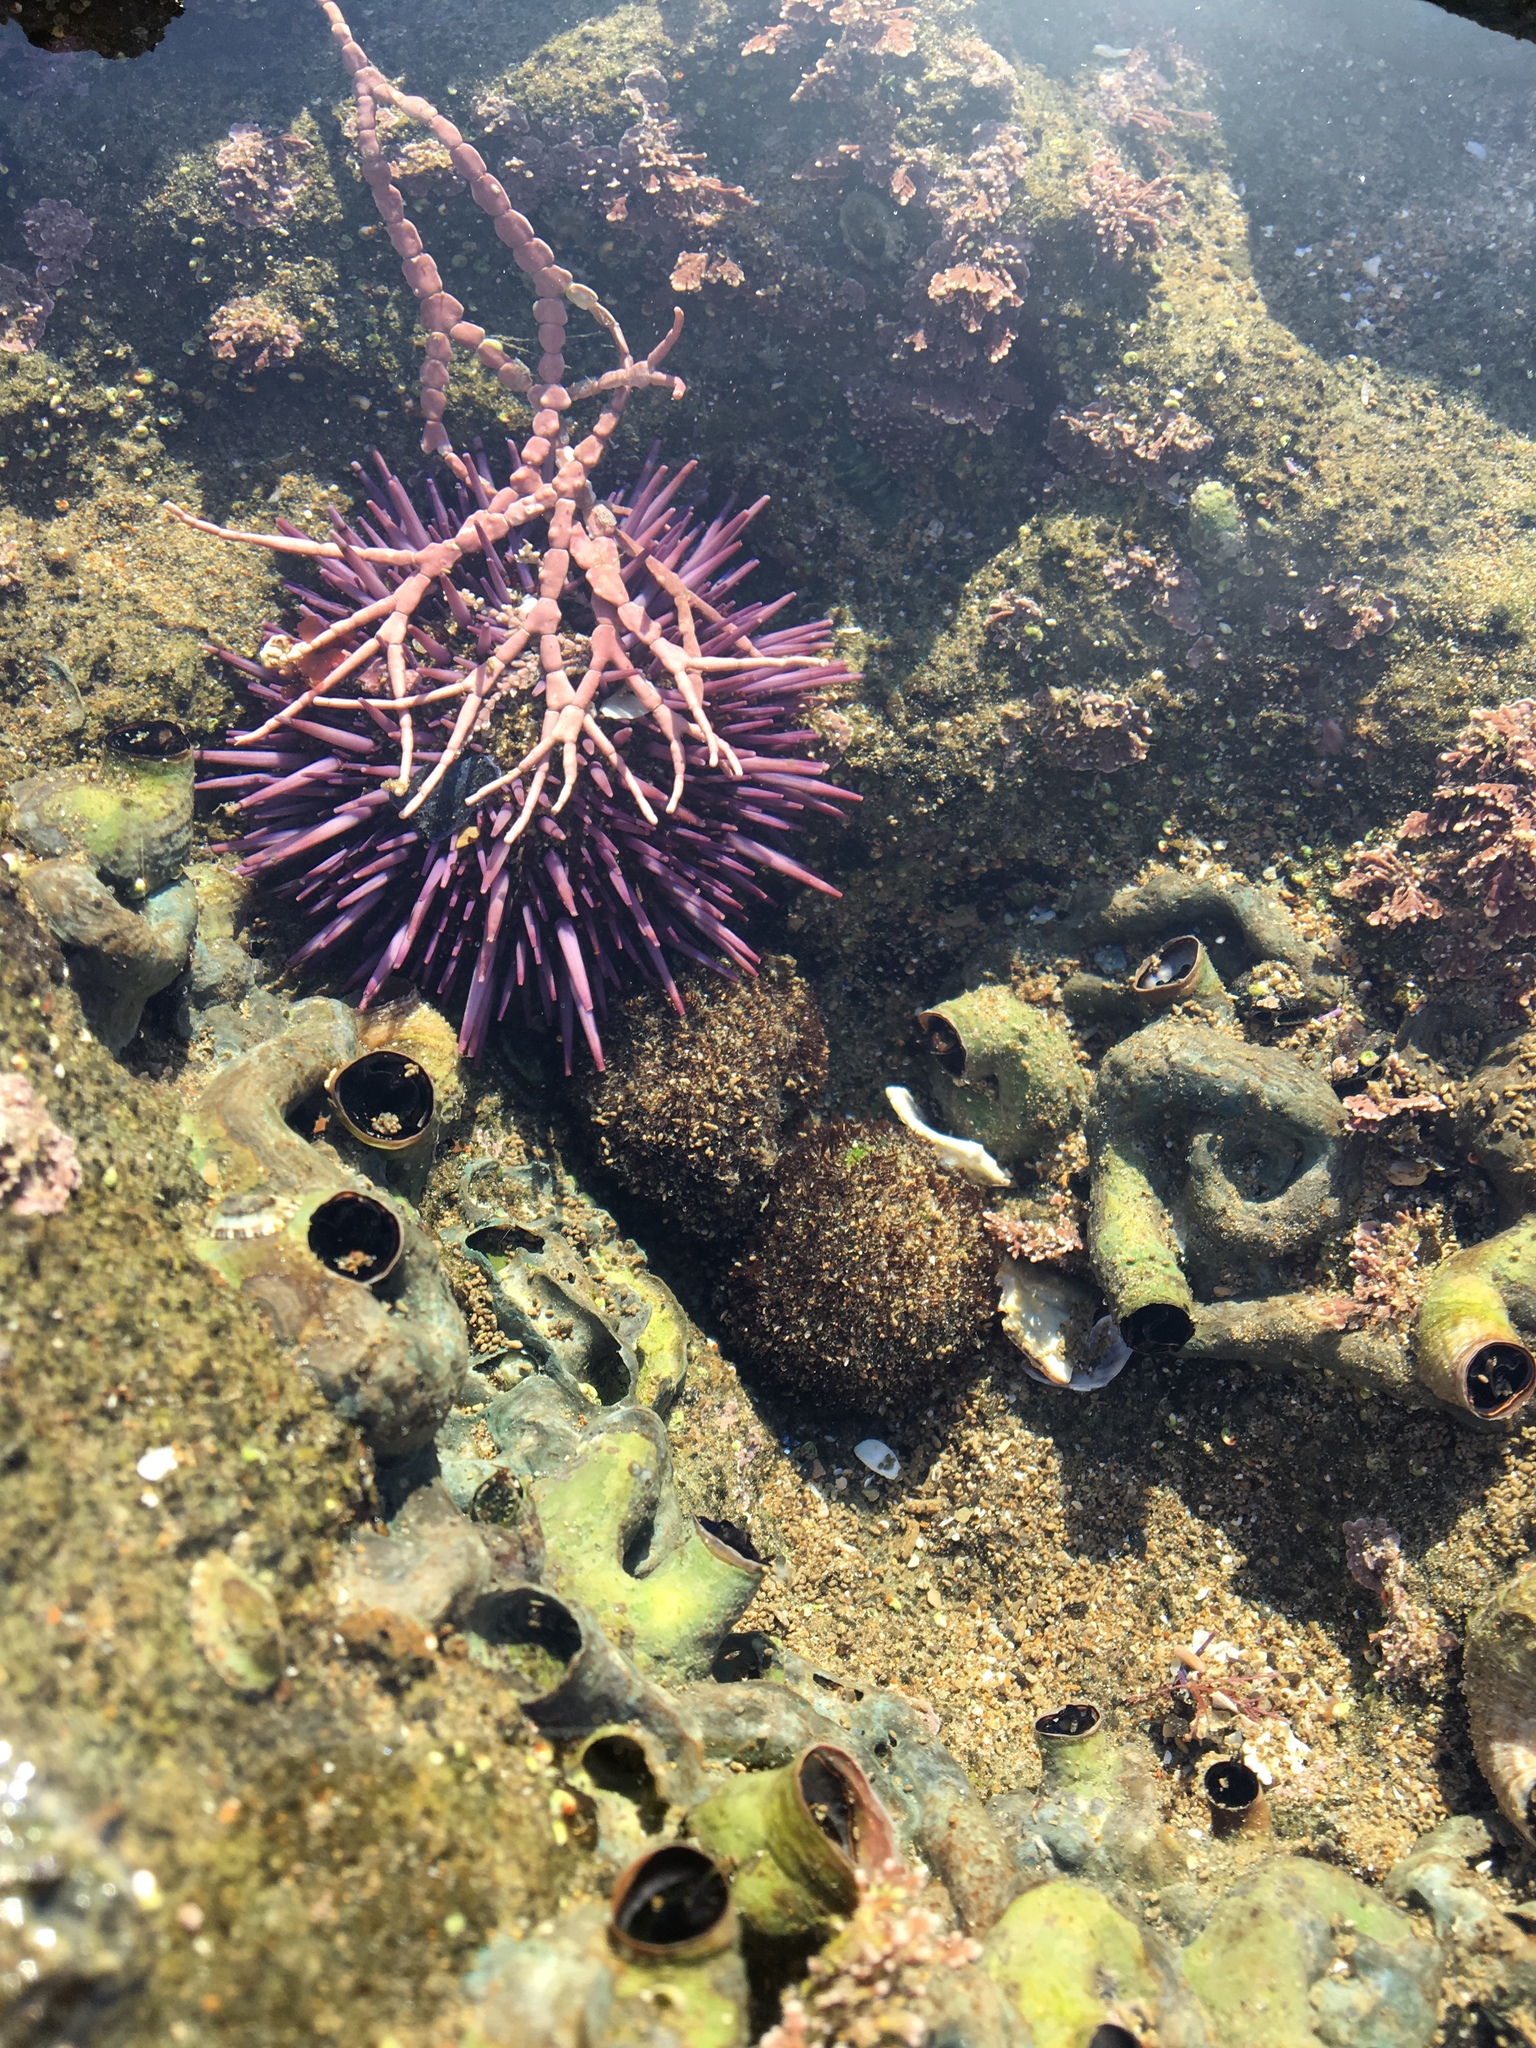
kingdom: Animalia
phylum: Echinodermata
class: Echinoidea
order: Camarodonta
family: Strongylocentrotidae
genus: Strongylocentrotus
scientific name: Strongylocentrotus purpuratus
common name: Purple sea urchin
